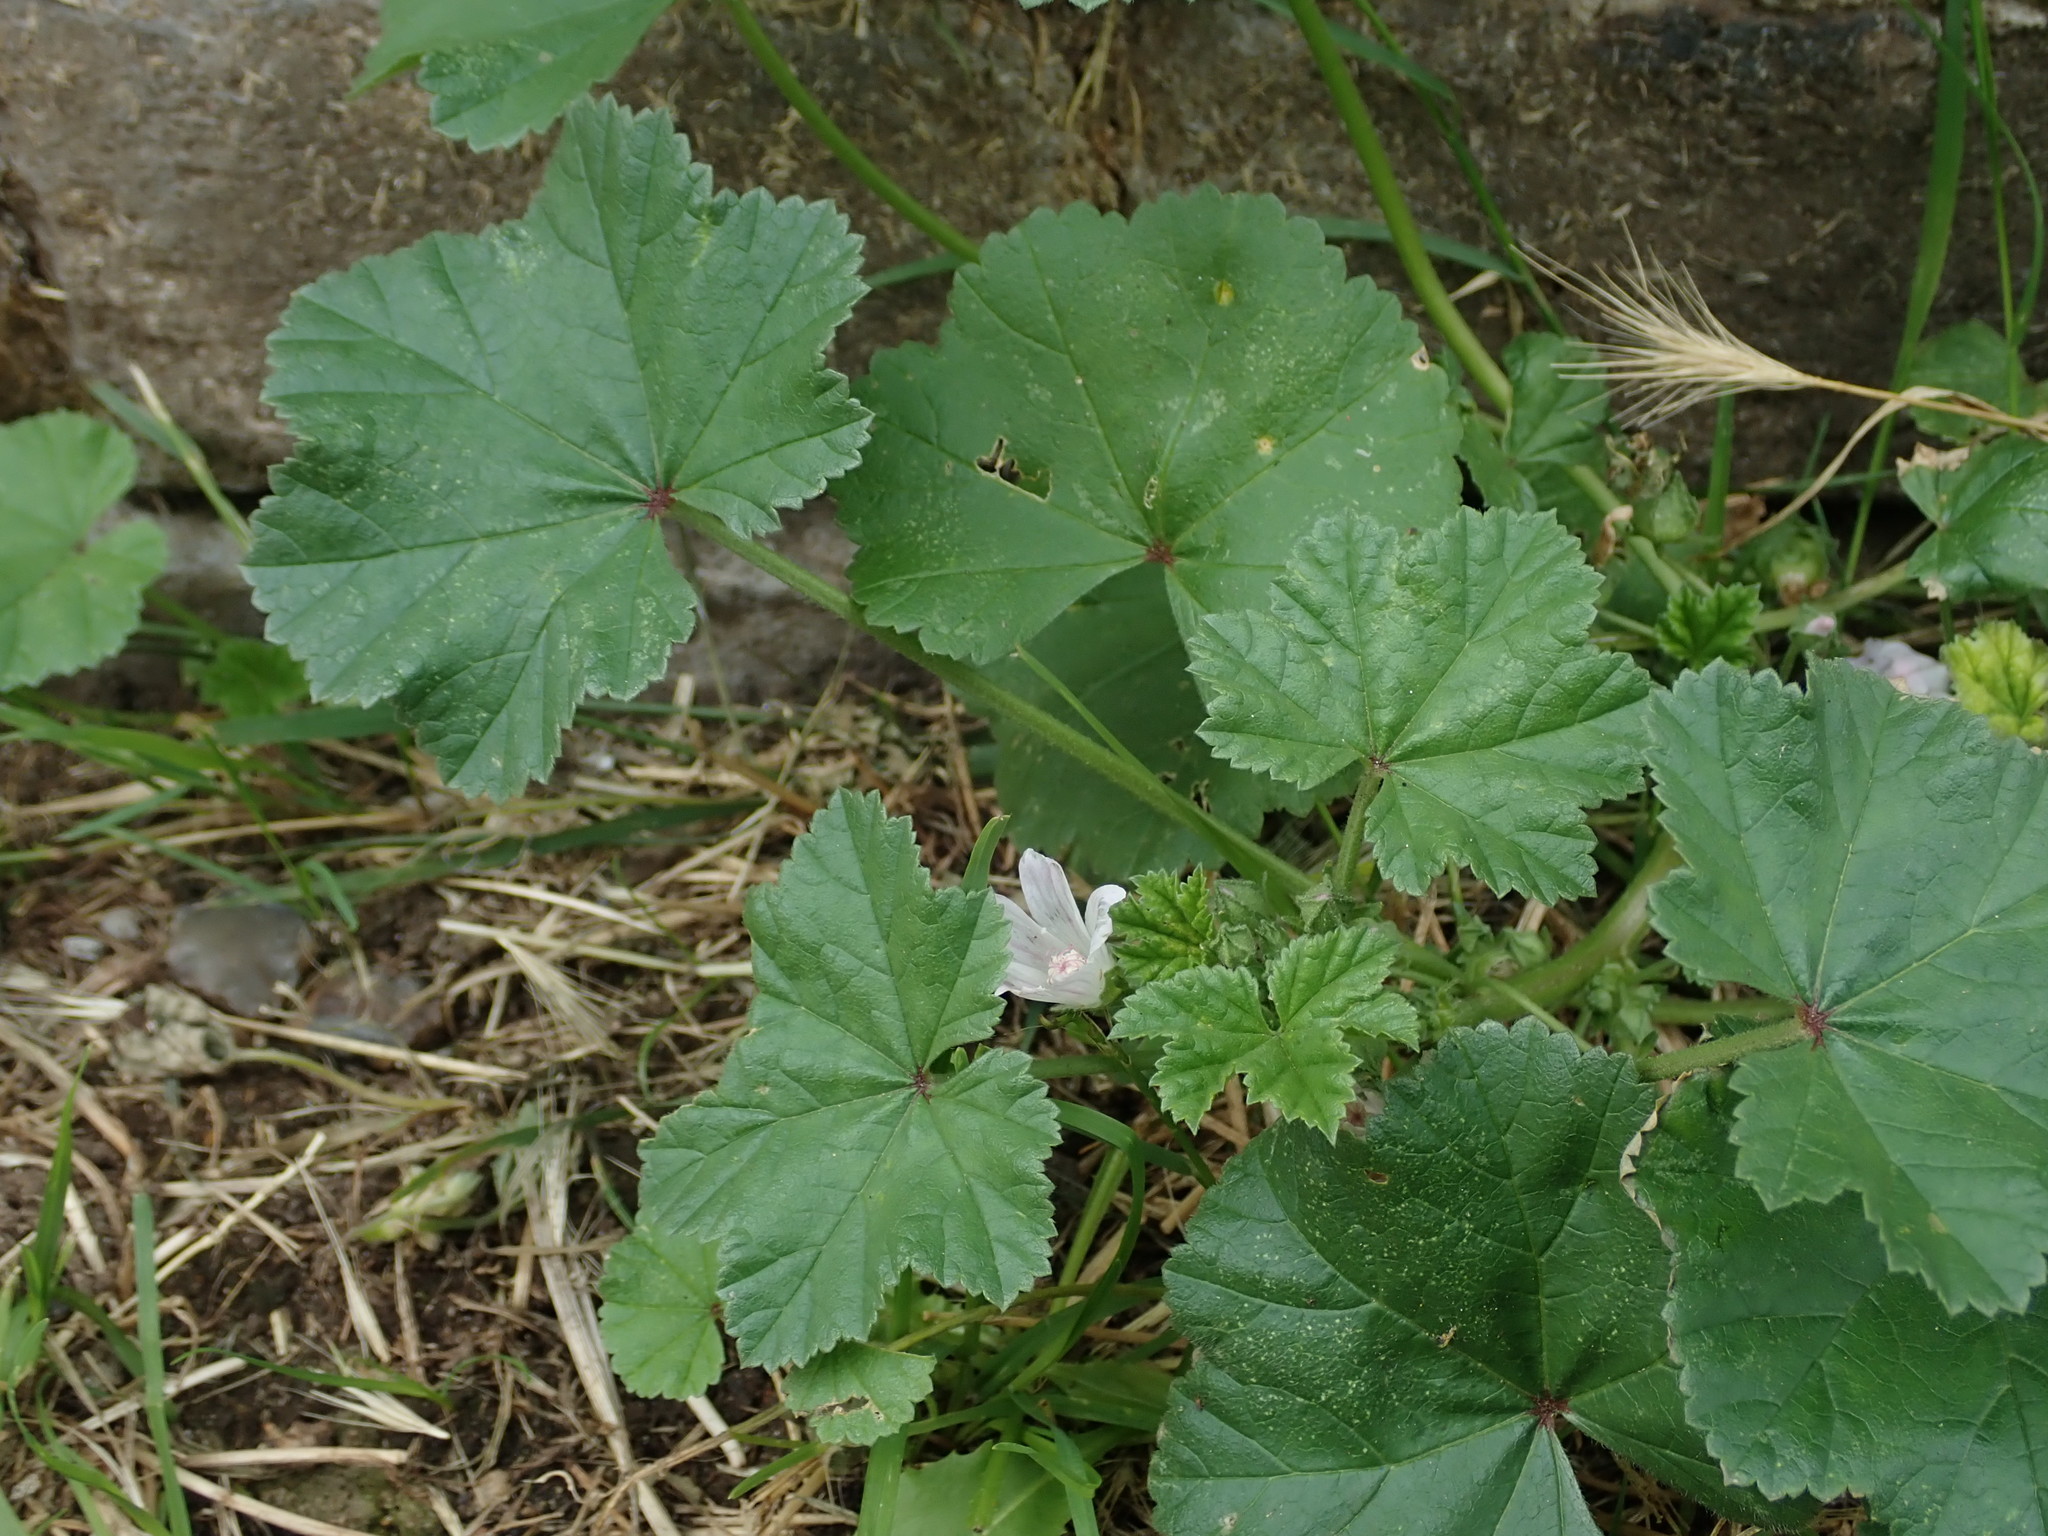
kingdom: Plantae
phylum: Tracheophyta
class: Magnoliopsida
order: Malvales
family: Malvaceae
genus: Malva
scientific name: Malva neglecta
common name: Common mallow
